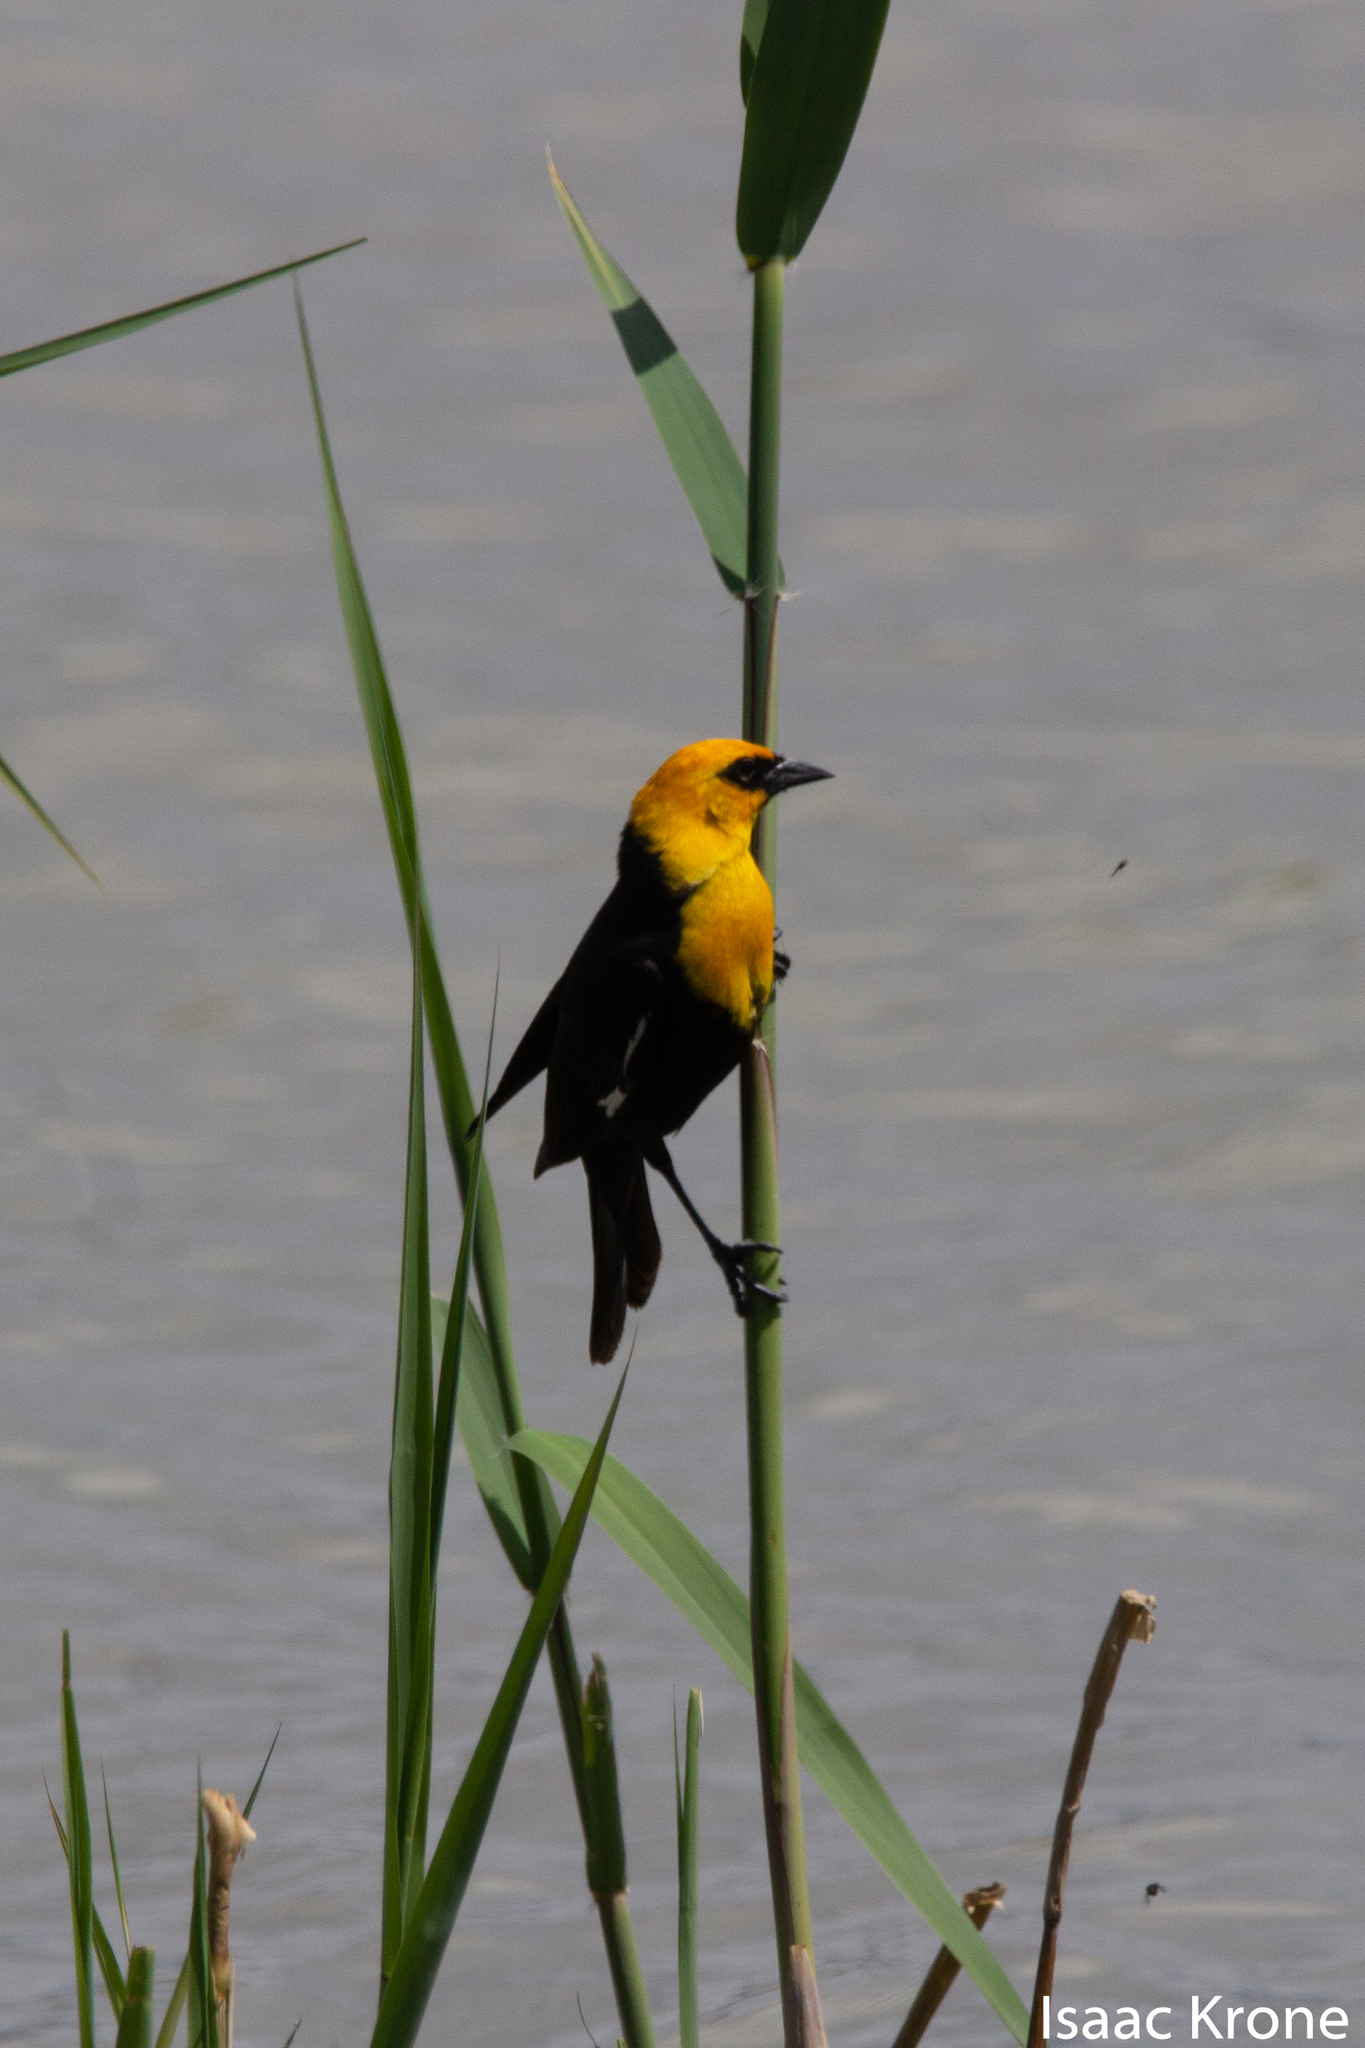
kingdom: Animalia
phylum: Chordata
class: Aves
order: Passeriformes
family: Icteridae
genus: Xanthocephalus
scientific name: Xanthocephalus xanthocephalus
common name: Yellow-headed blackbird
